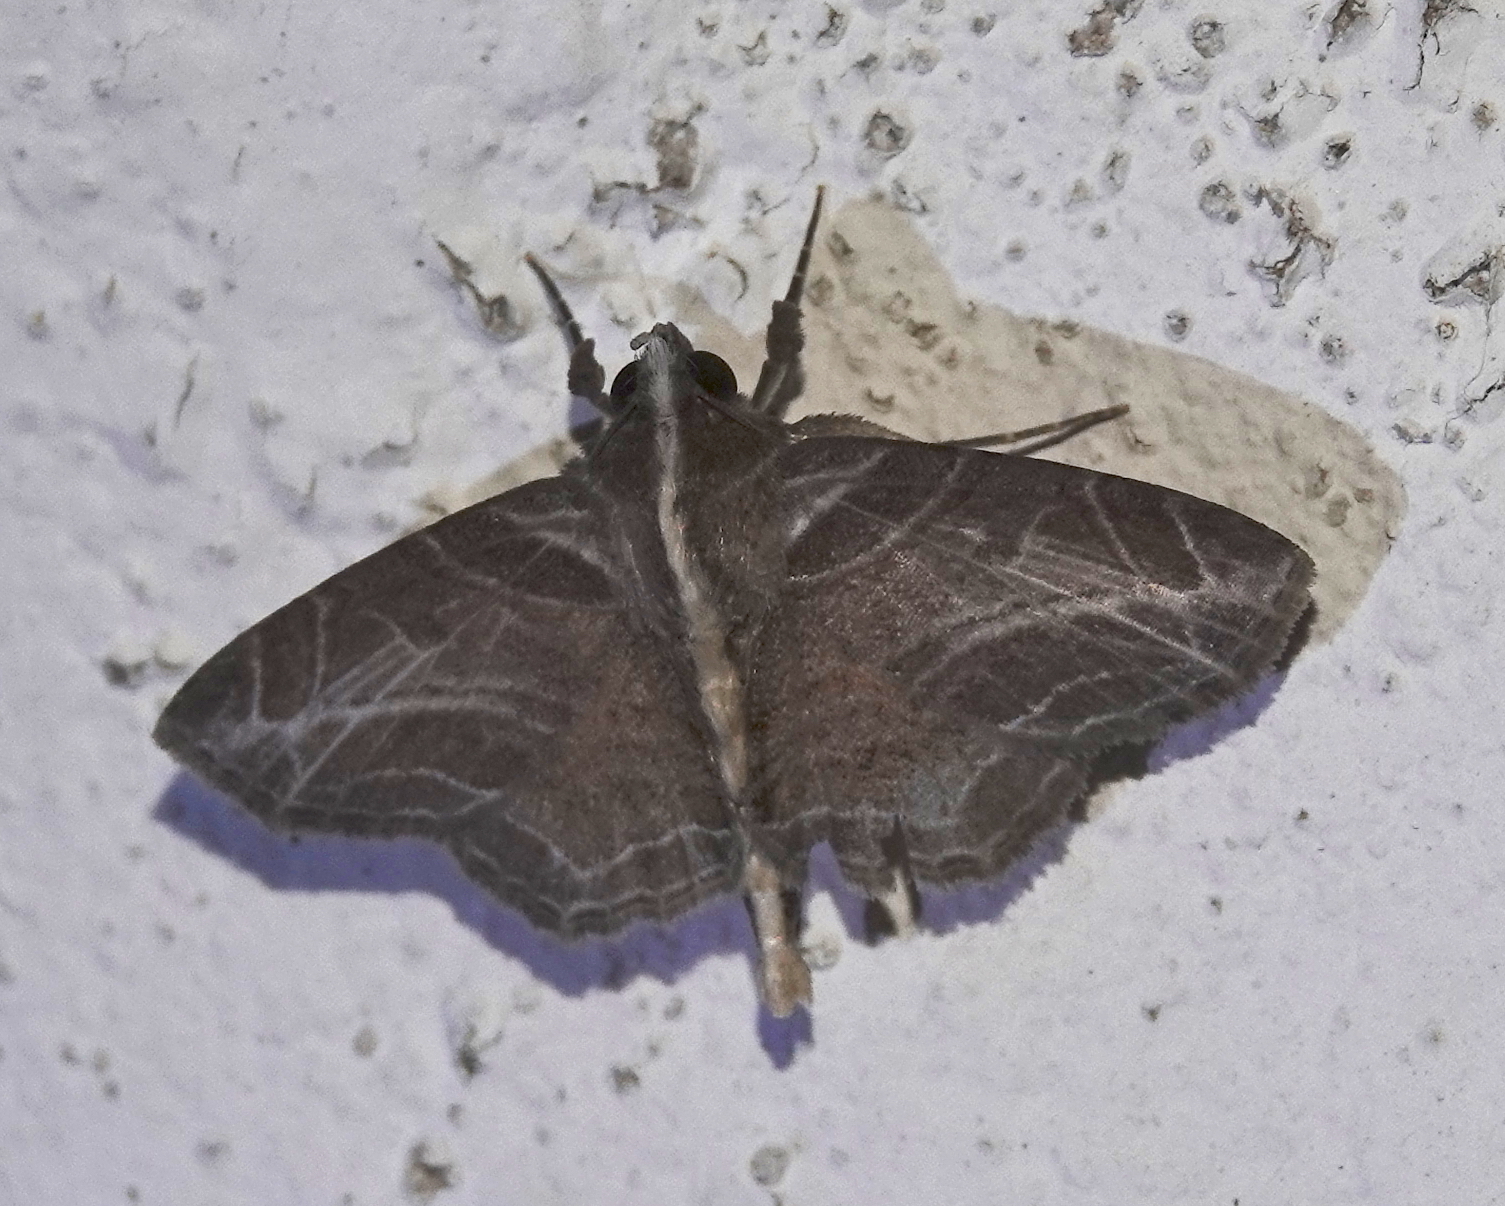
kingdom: Animalia
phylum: Arthropoda
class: Insecta
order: Lepidoptera
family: Erebidae
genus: Dolichosomastis
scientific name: Dolichosomastis leucogrammica
